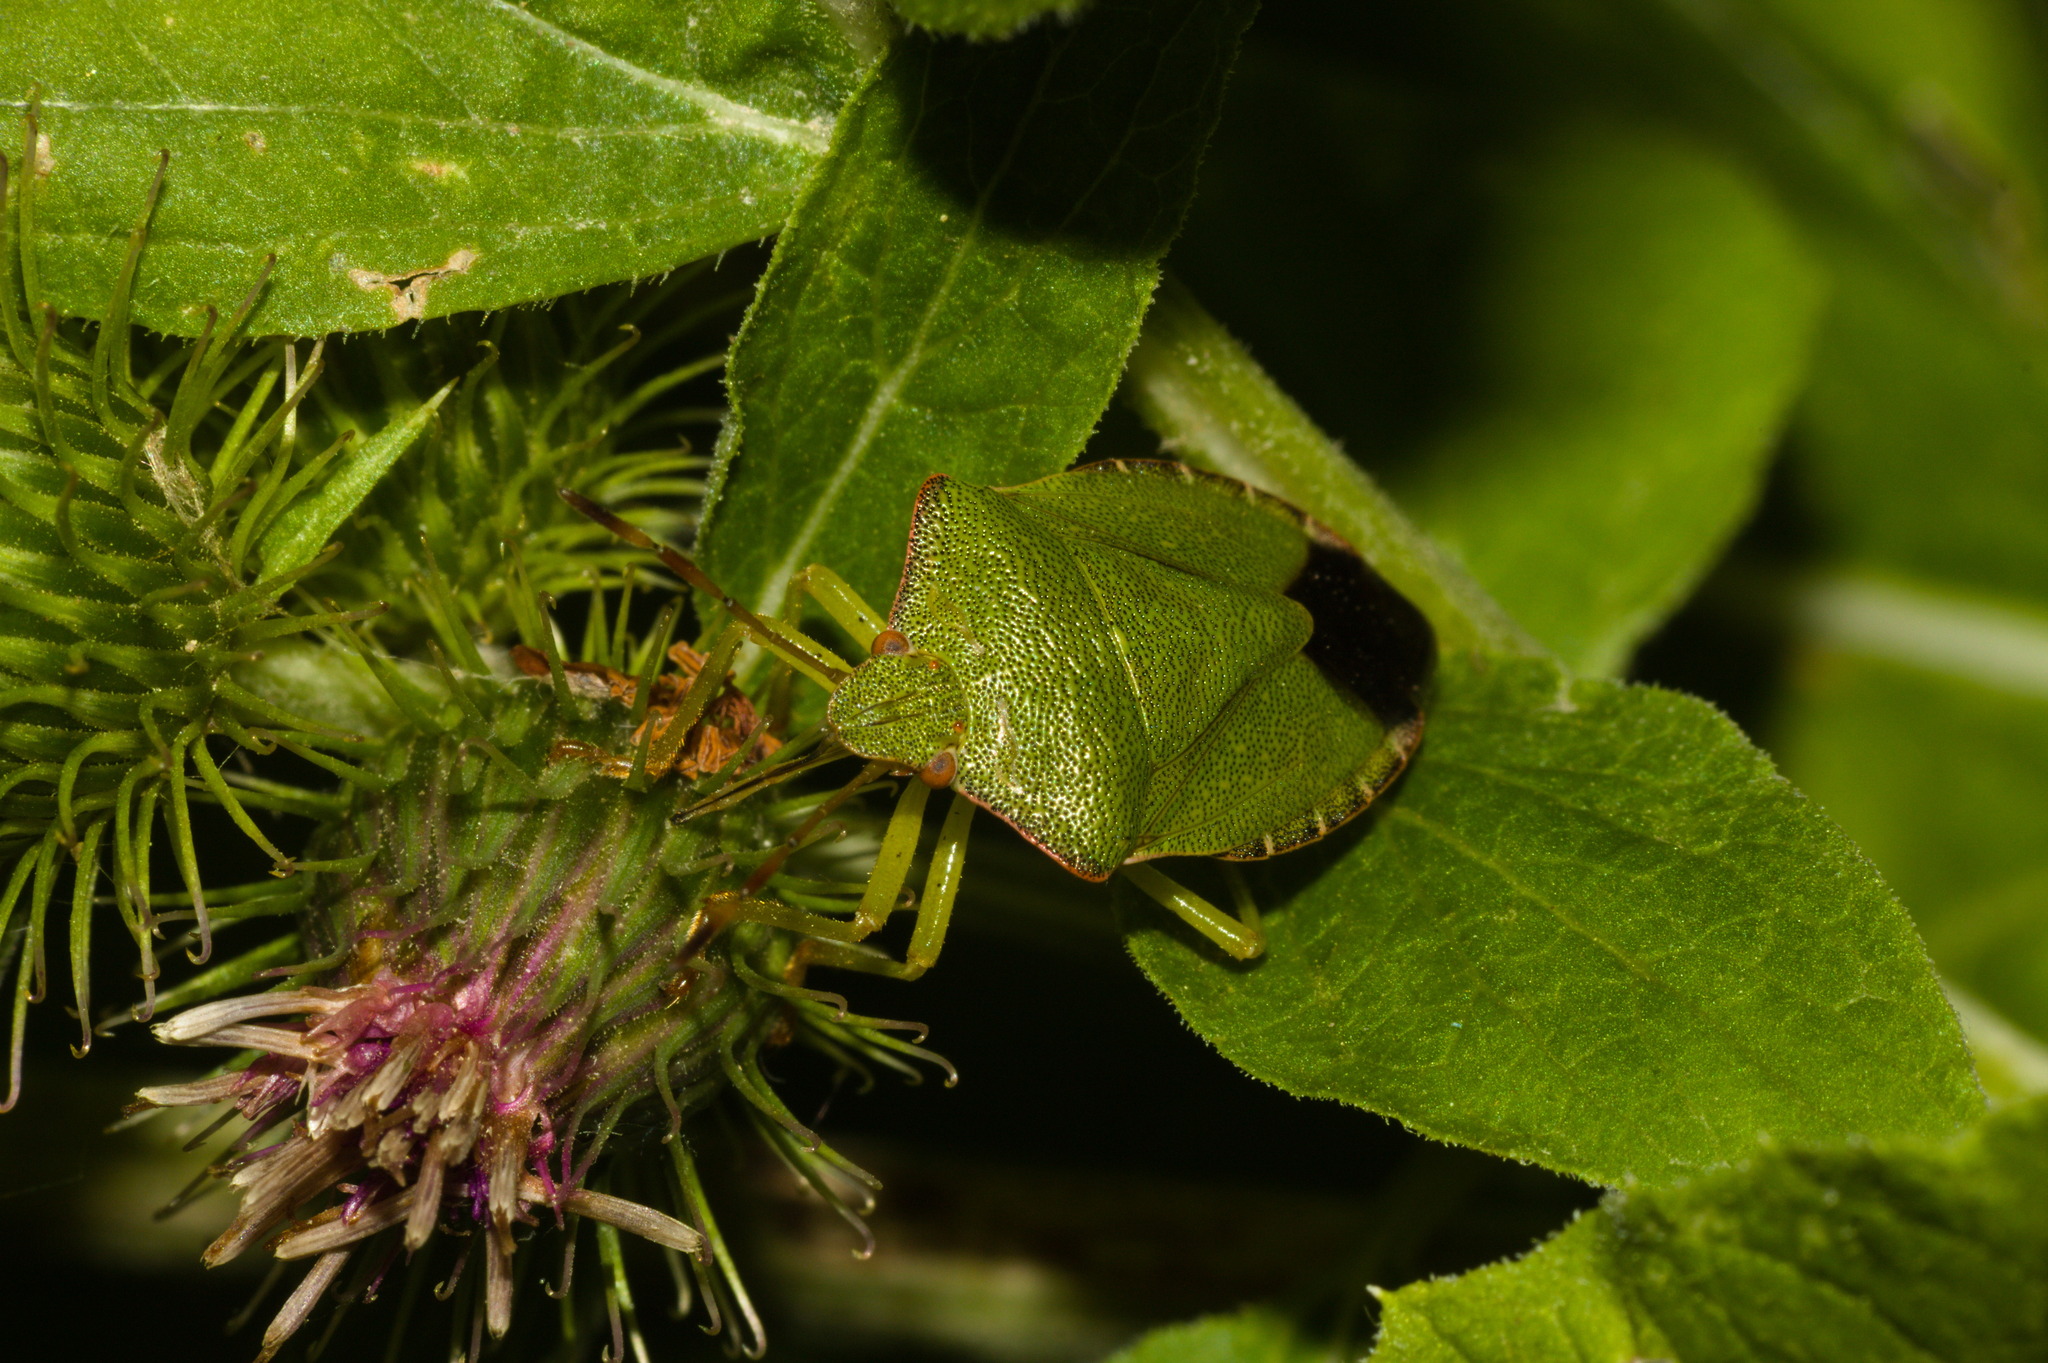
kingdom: Animalia
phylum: Arthropoda
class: Insecta
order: Hemiptera
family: Pentatomidae
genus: Palomena
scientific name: Palomena prasina
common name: Green shieldbug
